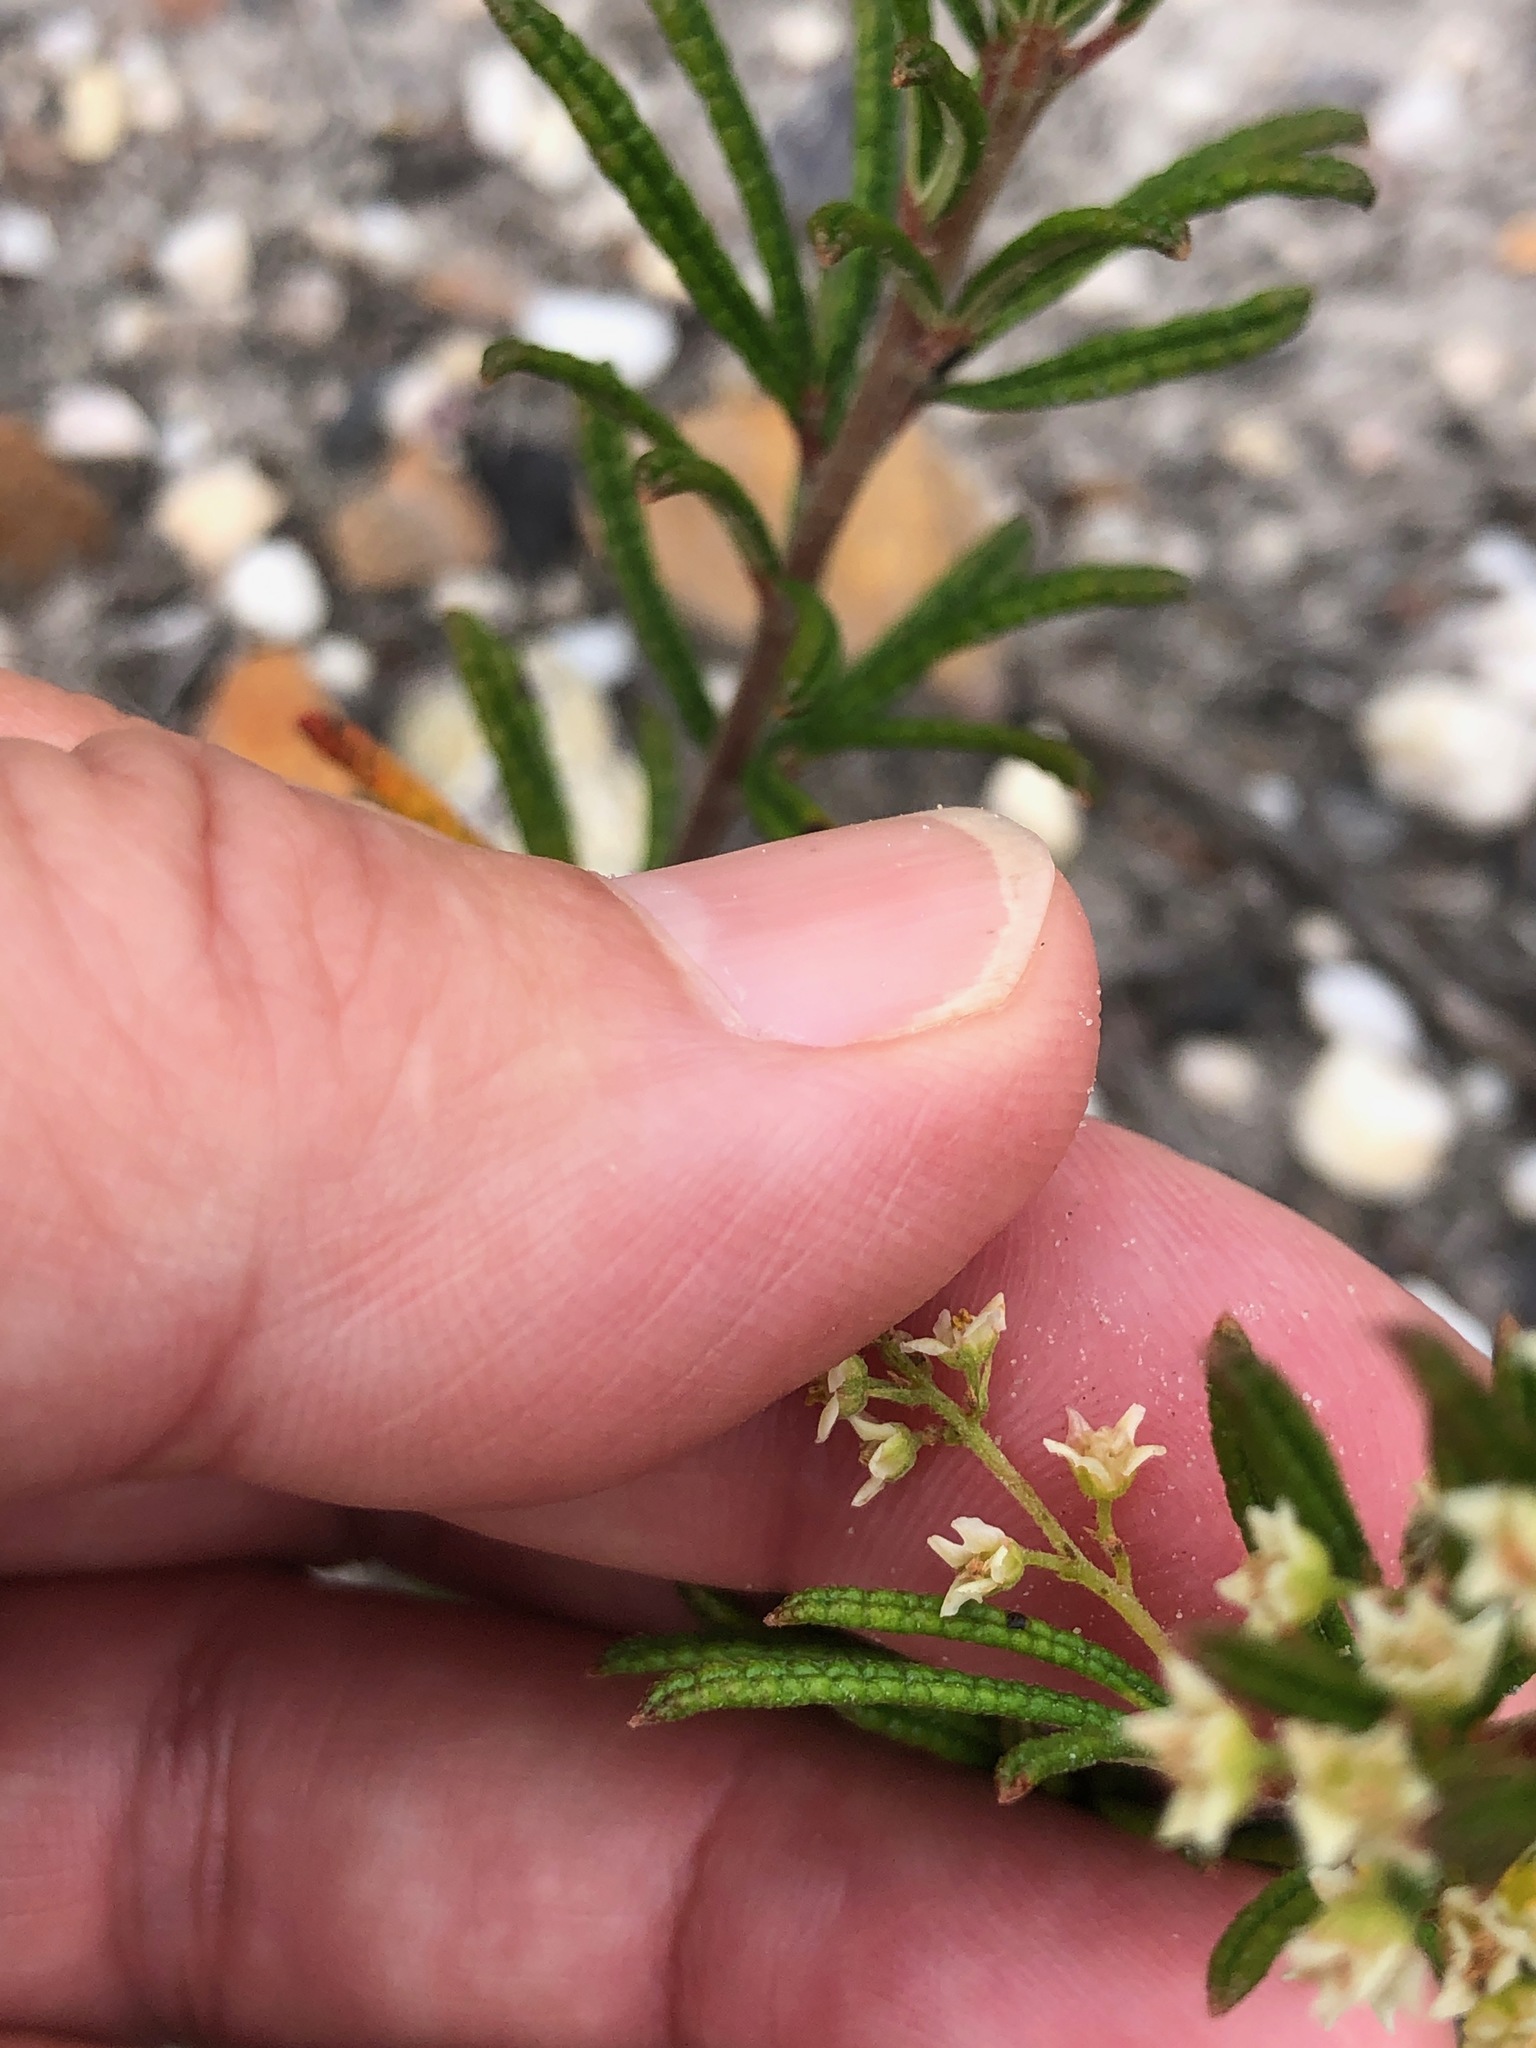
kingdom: Plantae
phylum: Tracheophyta
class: Magnoliopsida
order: Sapindales
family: Anacardiaceae
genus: Searsia
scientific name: Searsia rosmarinifolia
